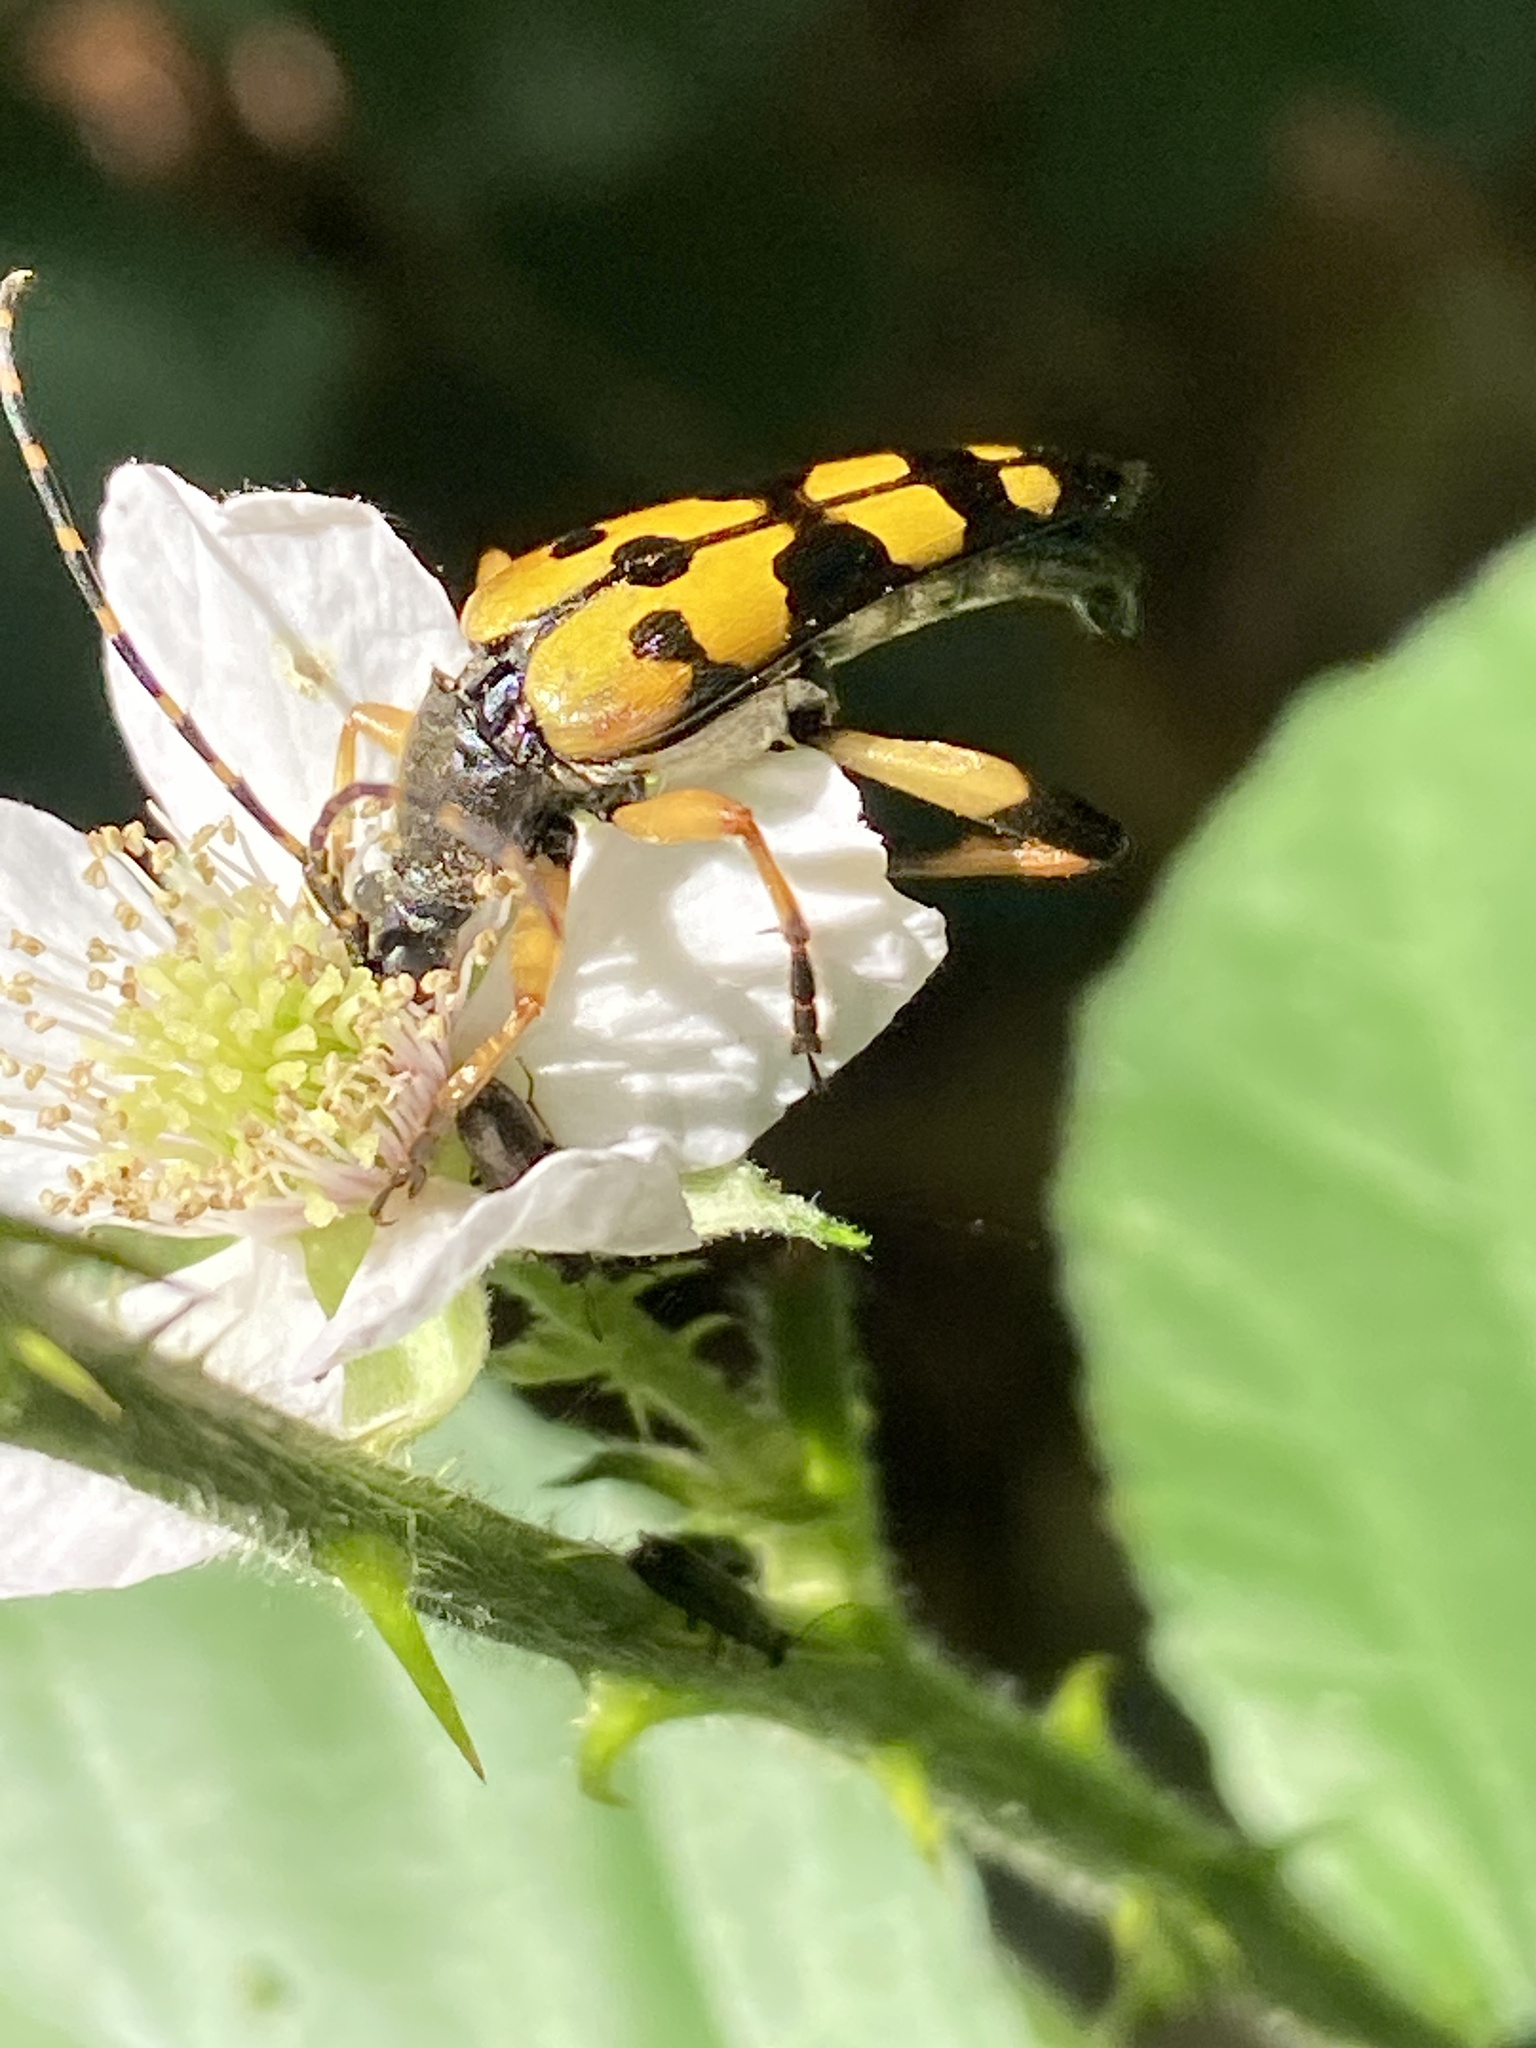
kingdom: Animalia
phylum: Arthropoda
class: Insecta
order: Coleoptera
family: Cerambycidae
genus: Rutpela
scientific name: Rutpela maculata
